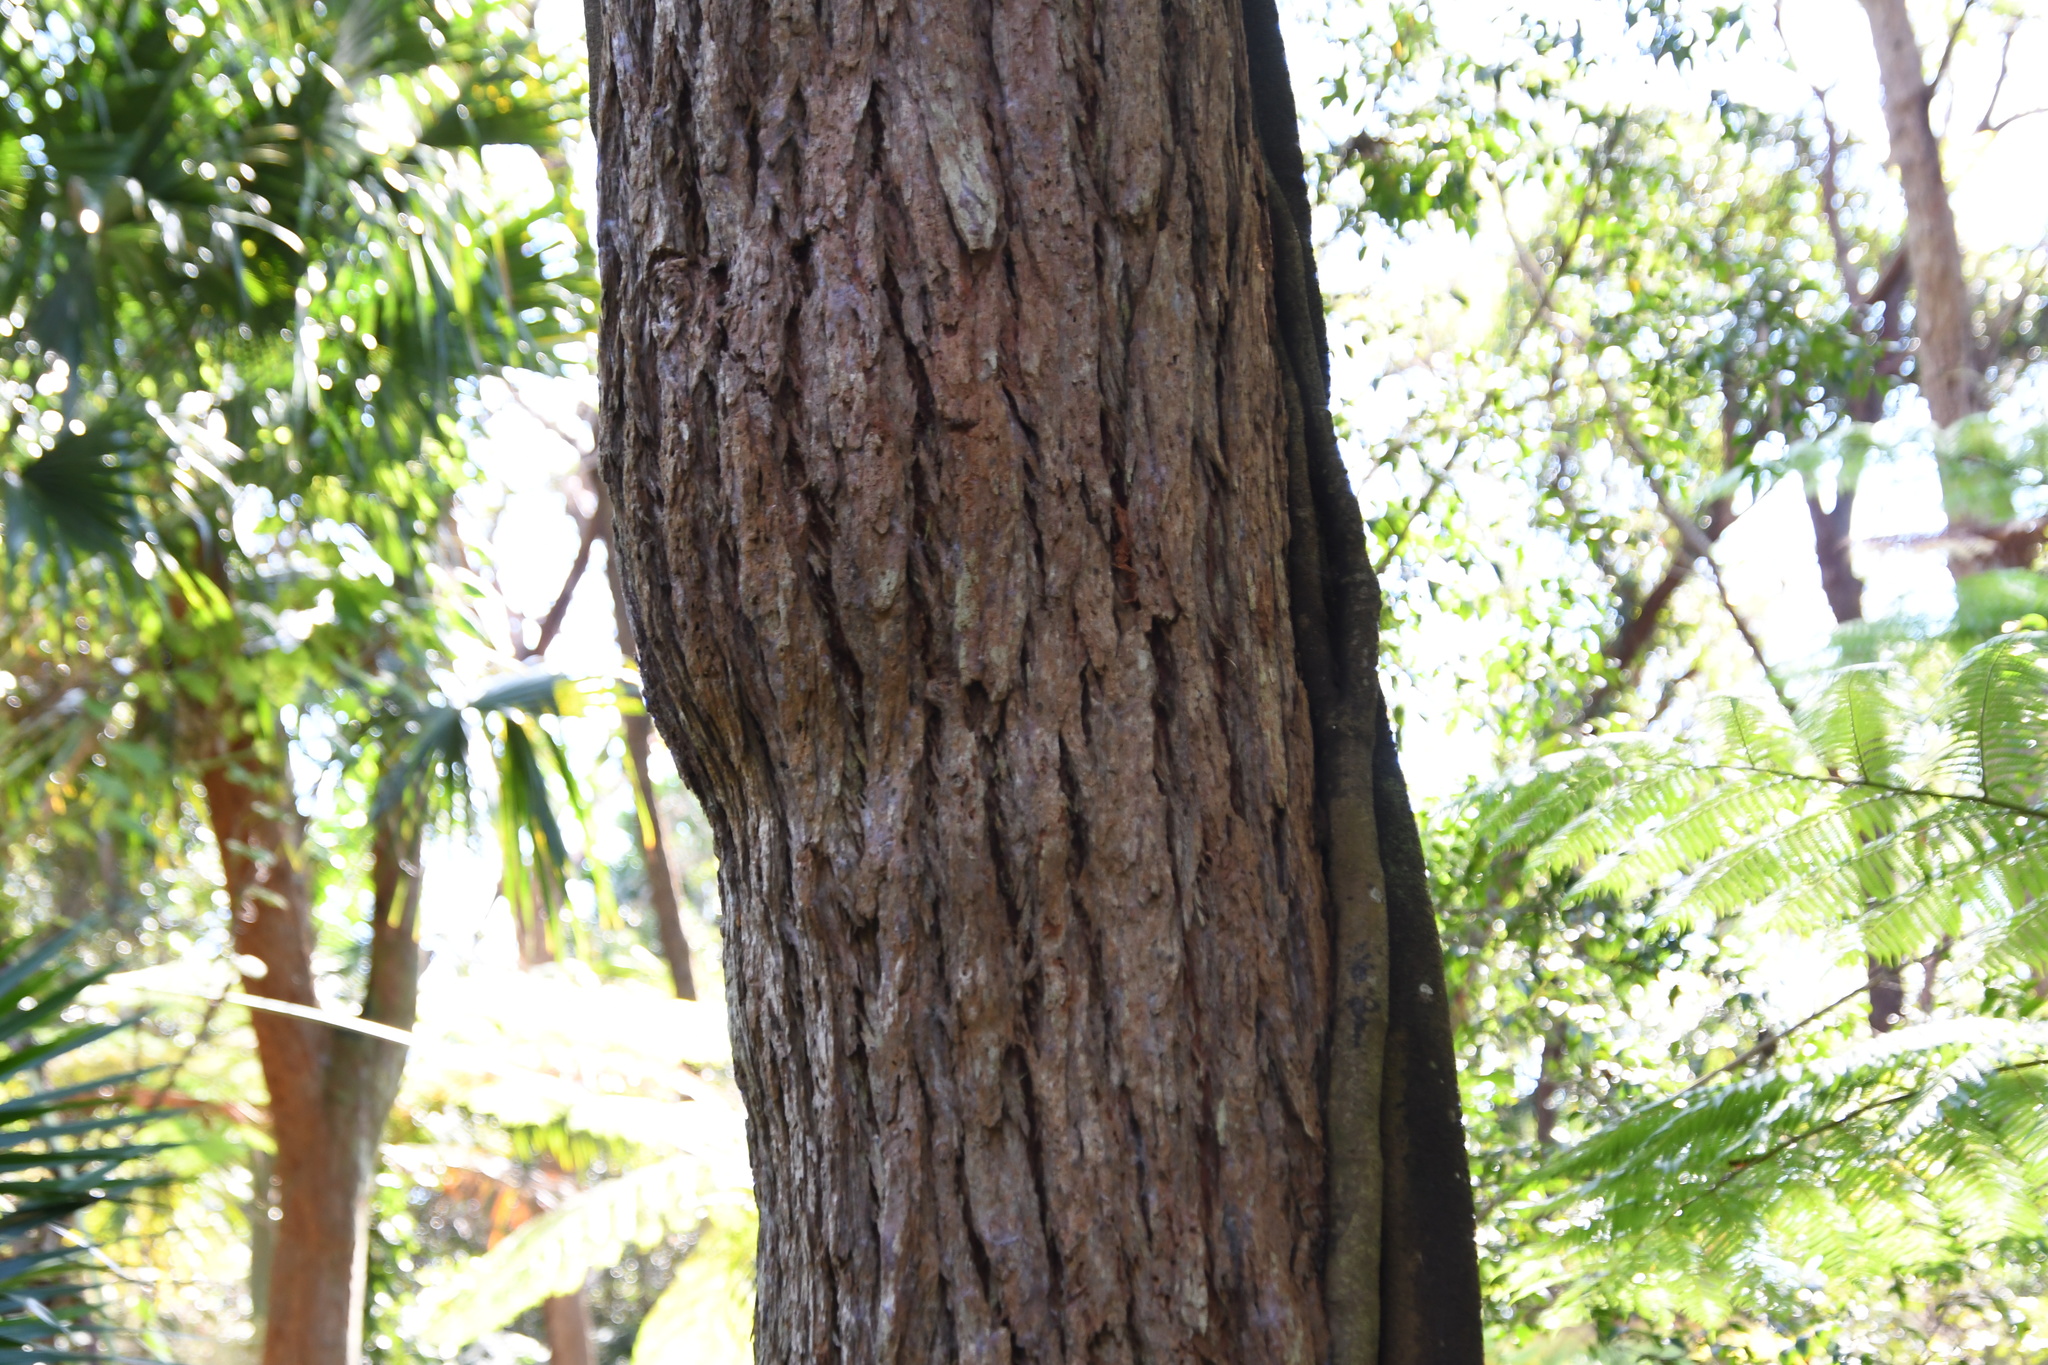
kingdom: Plantae
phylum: Tracheophyta
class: Magnoliopsida
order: Myrtales
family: Myrtaceae
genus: Eucalyptus
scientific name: Eucalyptus robusta
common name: Swampmahogany
